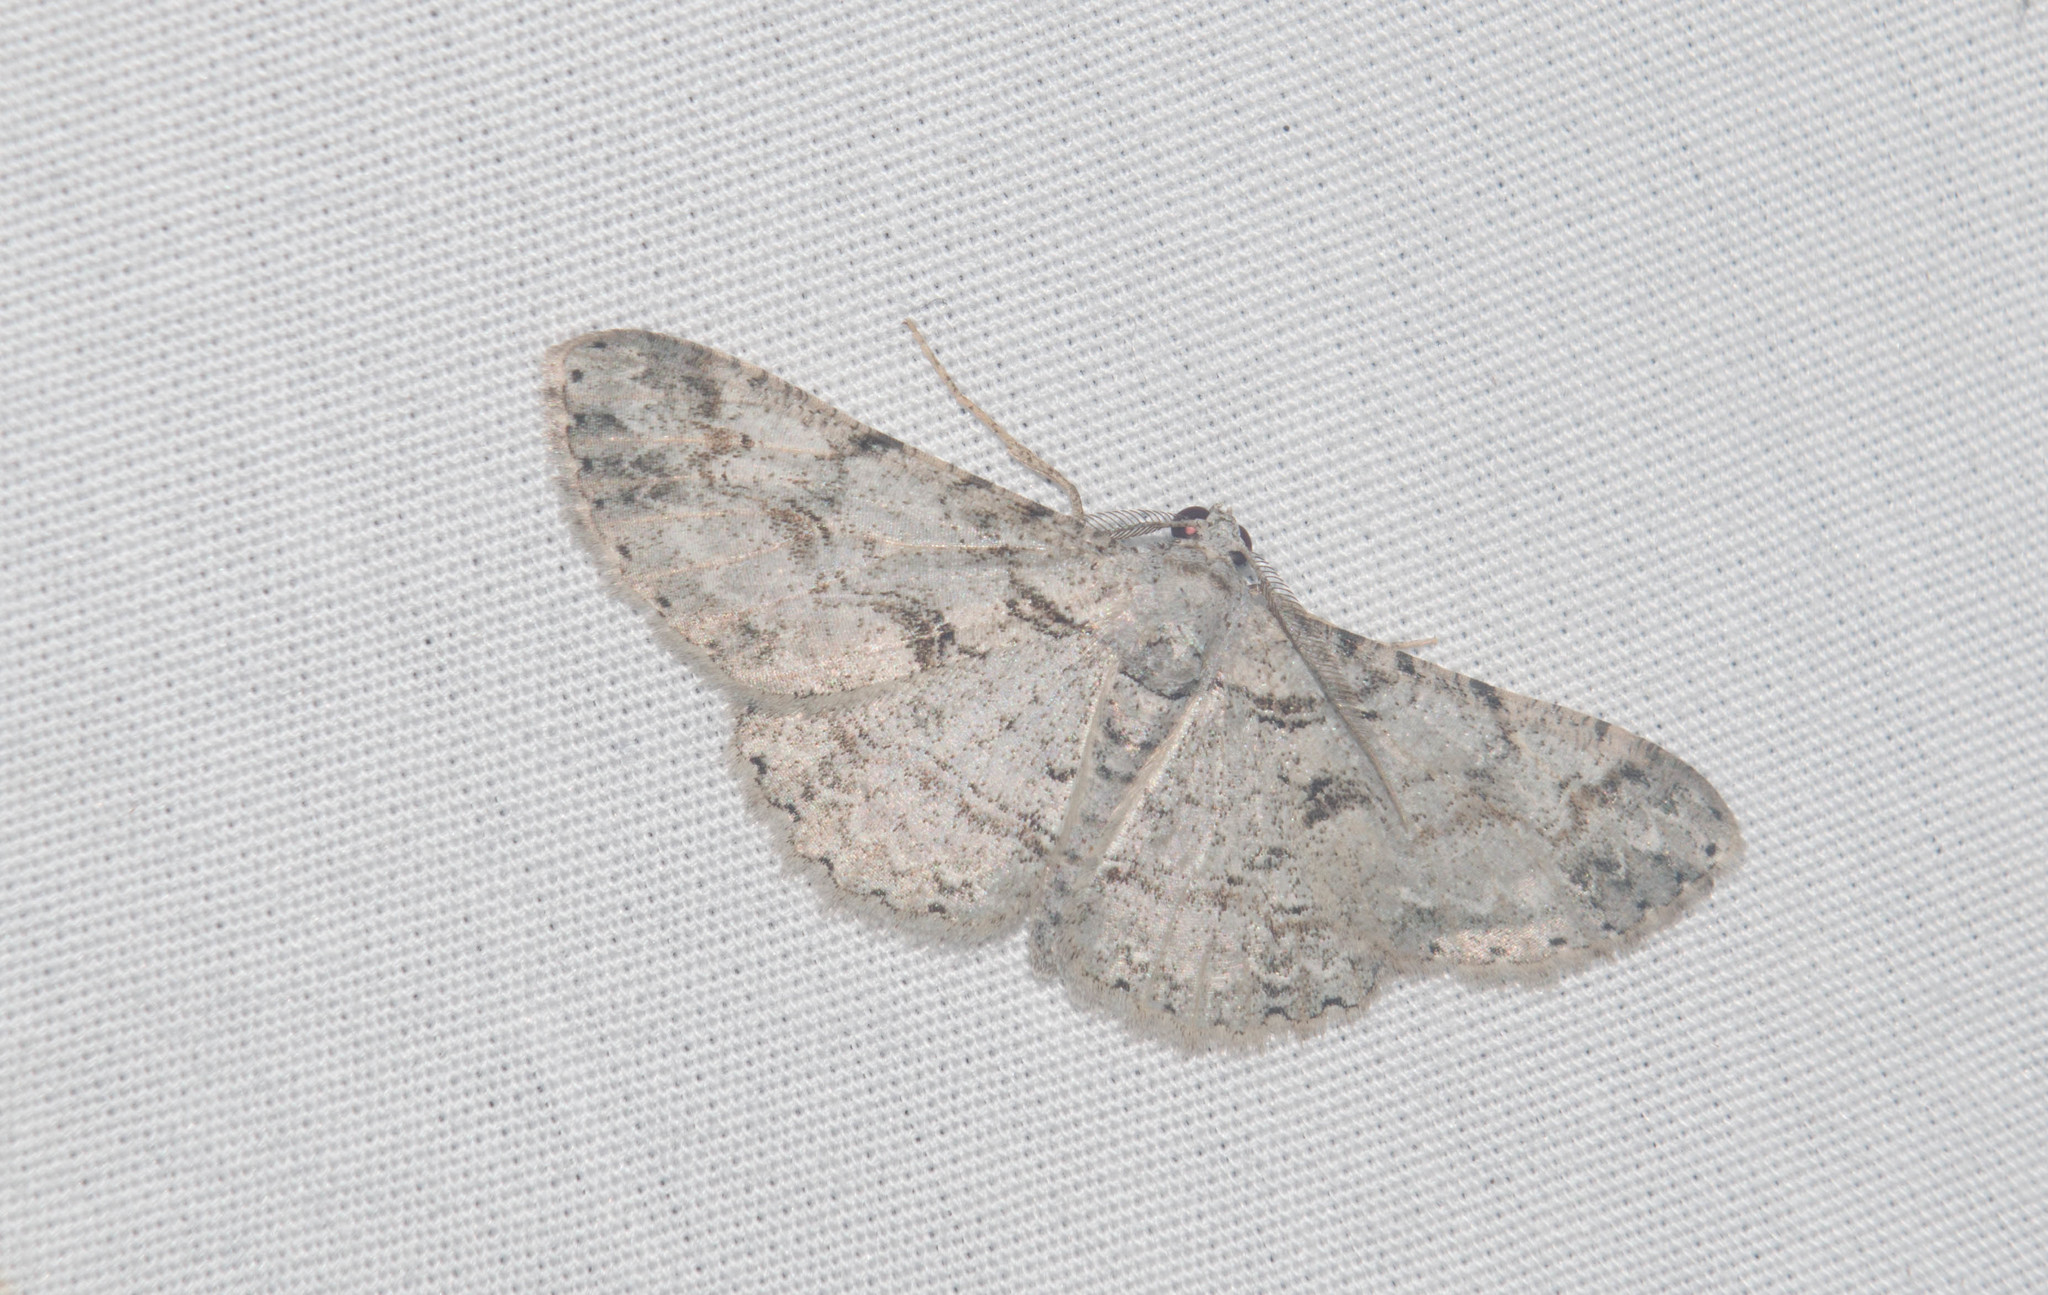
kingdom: Animalia
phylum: Arthropoda
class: Insecta
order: Lepidoptera
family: Geometridae
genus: Iridopsis
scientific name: Iridopsis fragilaria
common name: Moth
